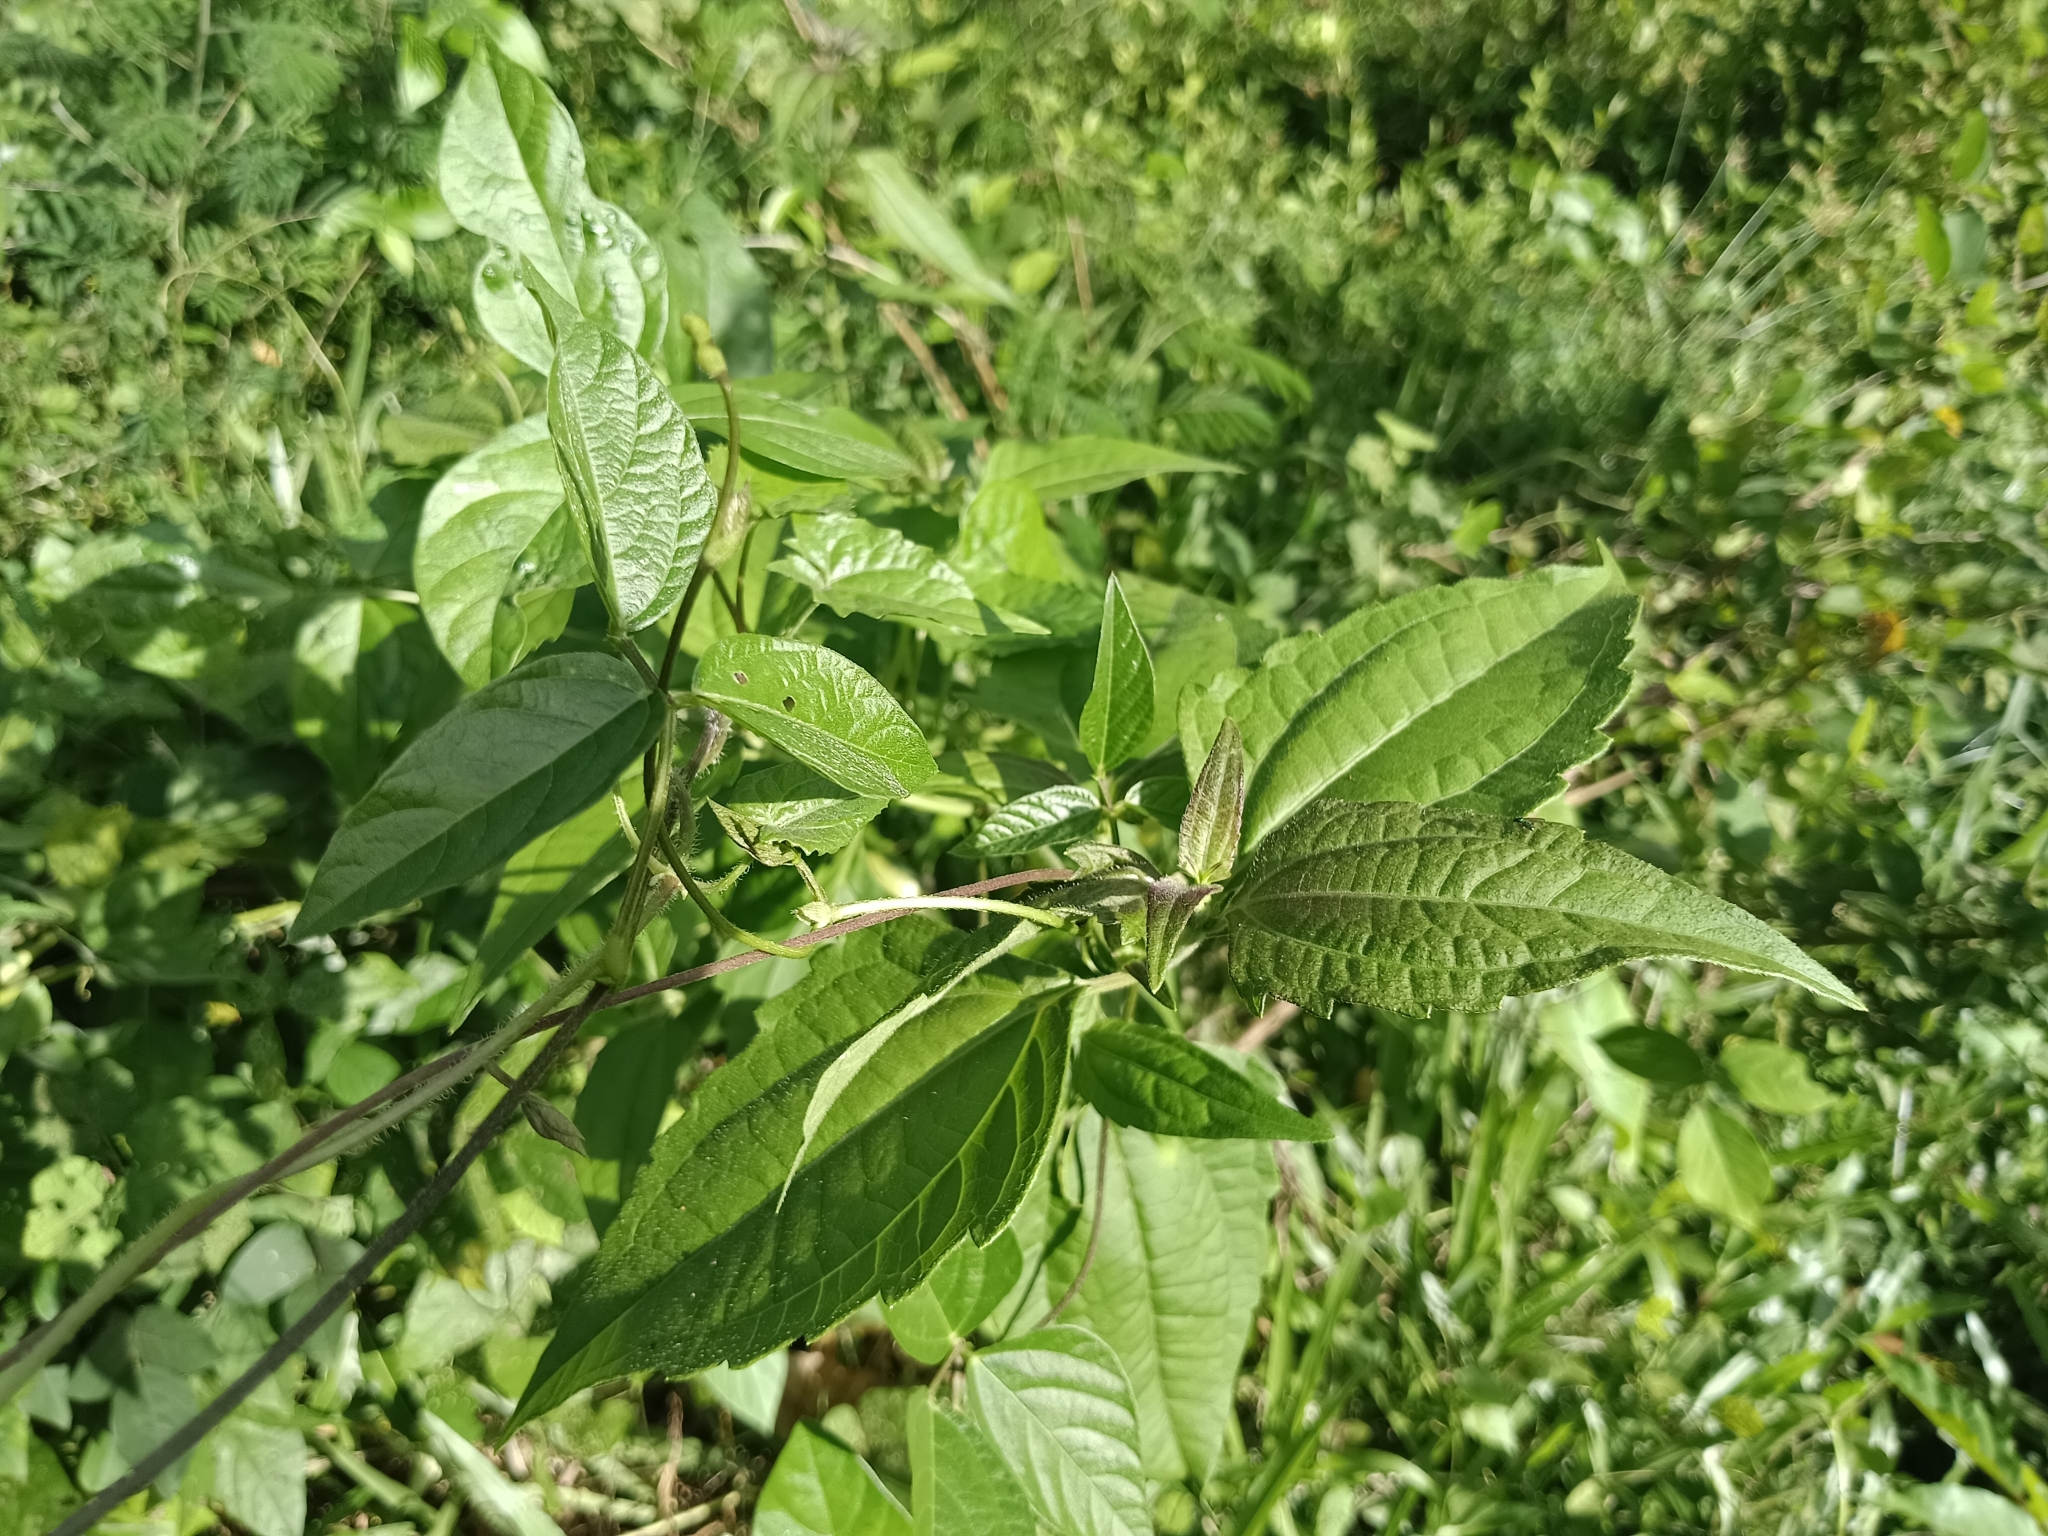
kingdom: Plantae
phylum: Tracheophyta
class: Magnoliopsida
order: Asterales
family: Asteraceae
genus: Chromolaena
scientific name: Chromolaena odorata
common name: Siamweed
